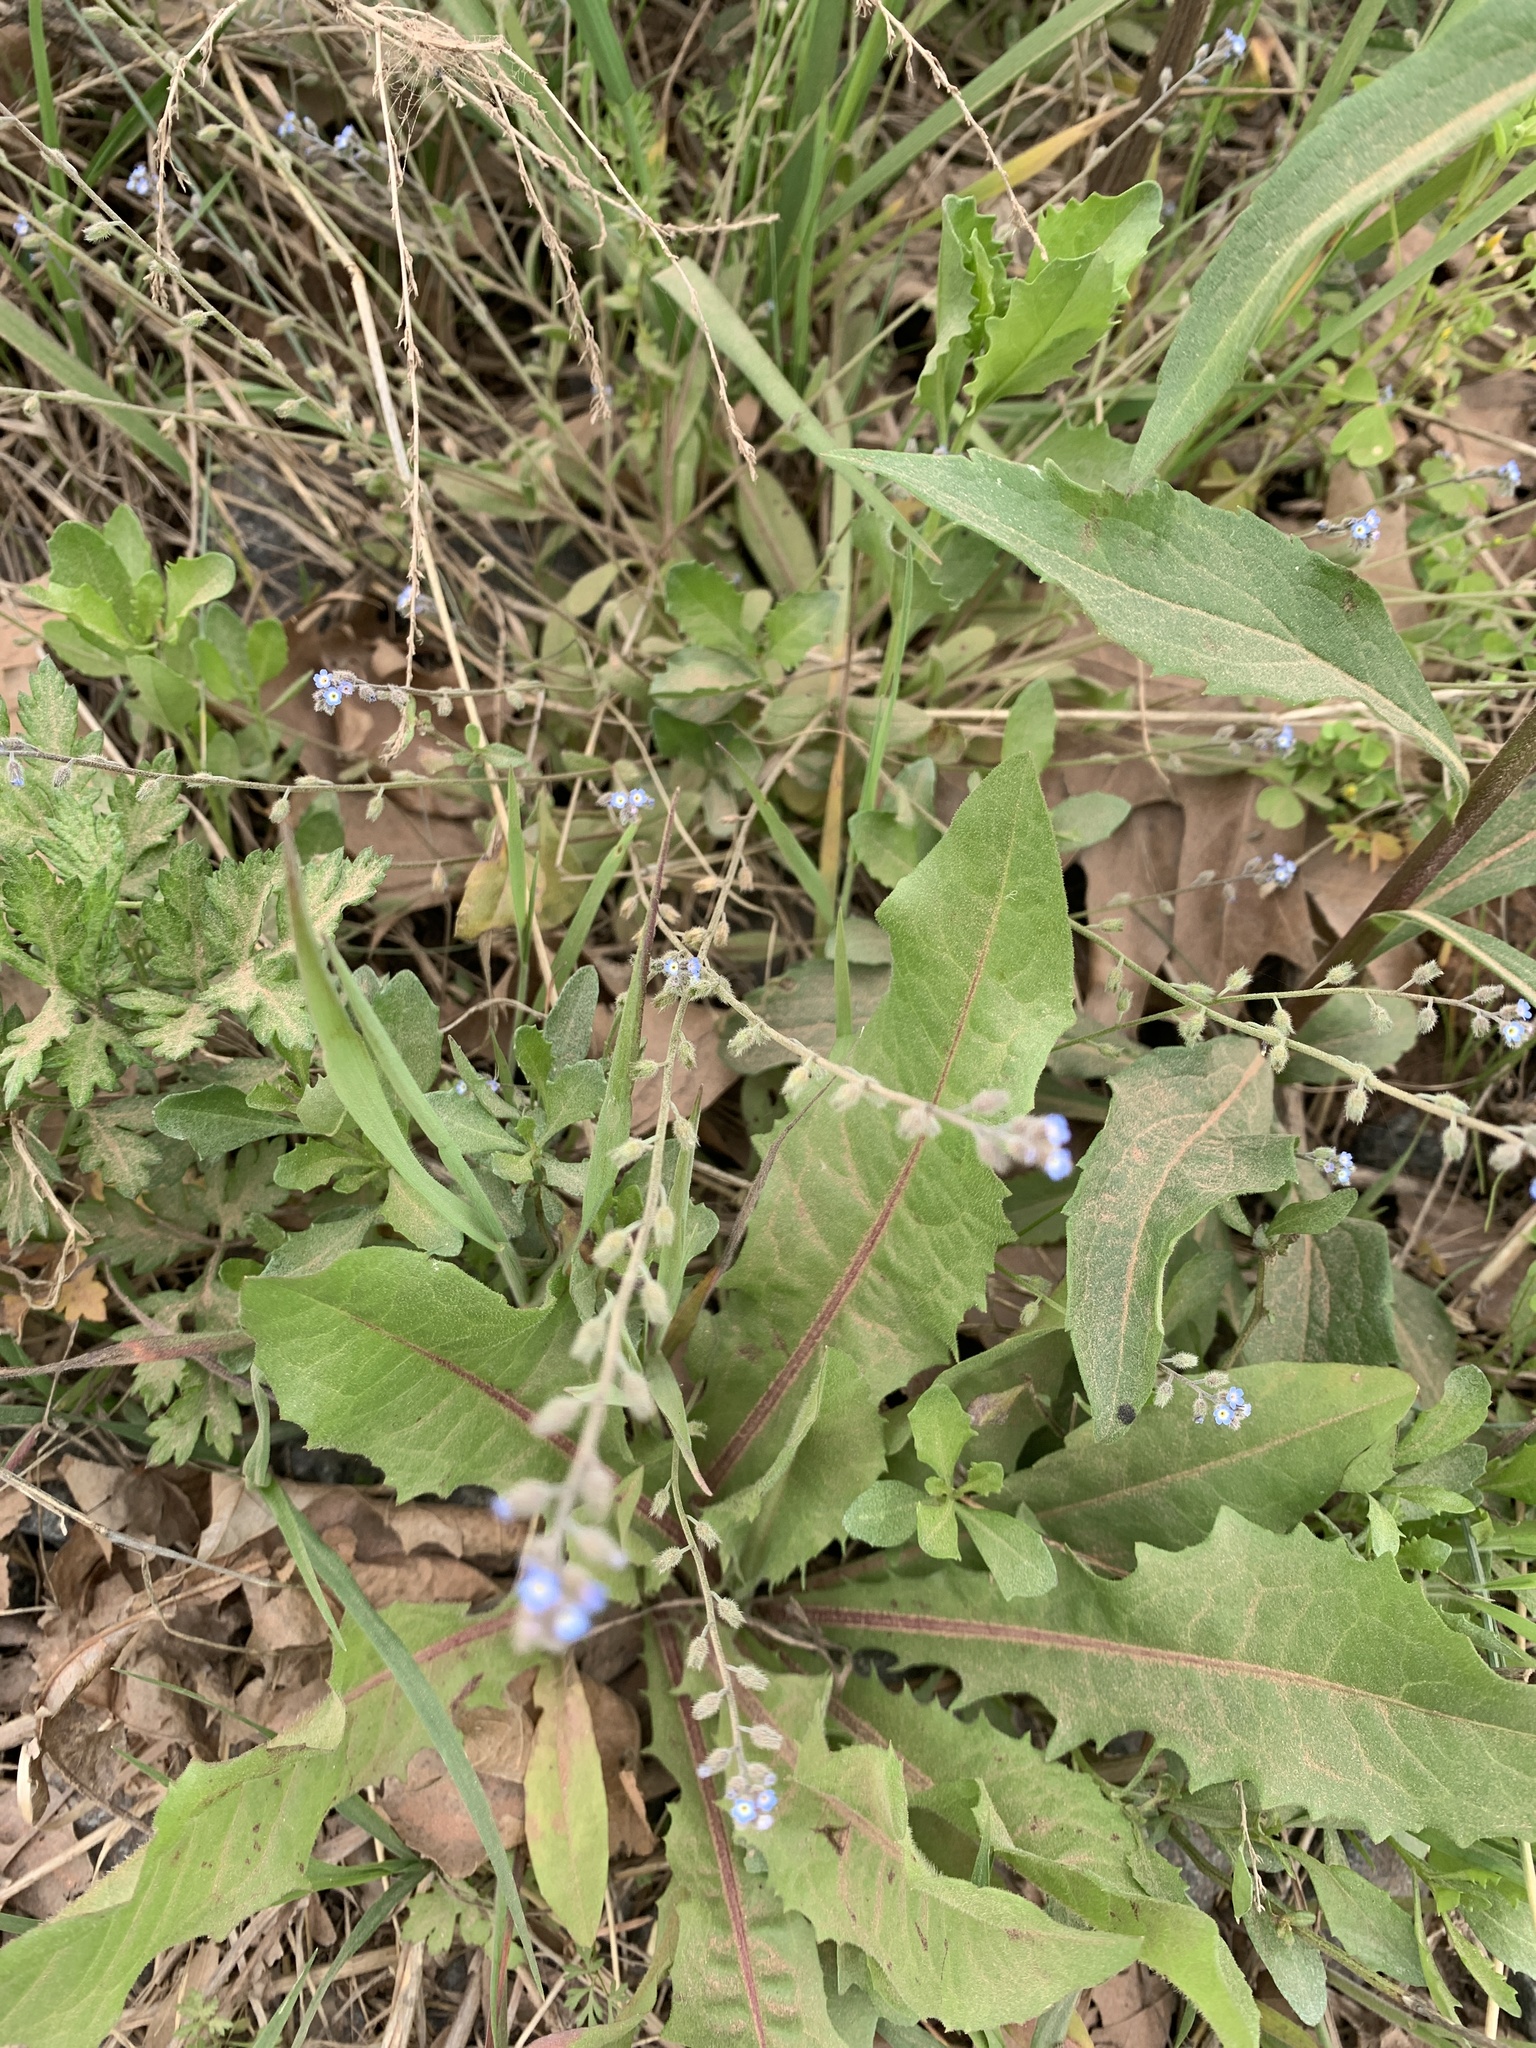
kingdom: Plantae
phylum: Tracheophyta
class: Magnoliopsida
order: Boraginales
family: Boraginaceae
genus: Myosotis
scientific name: Myosotis ramosissima
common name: Early forget-me-not
